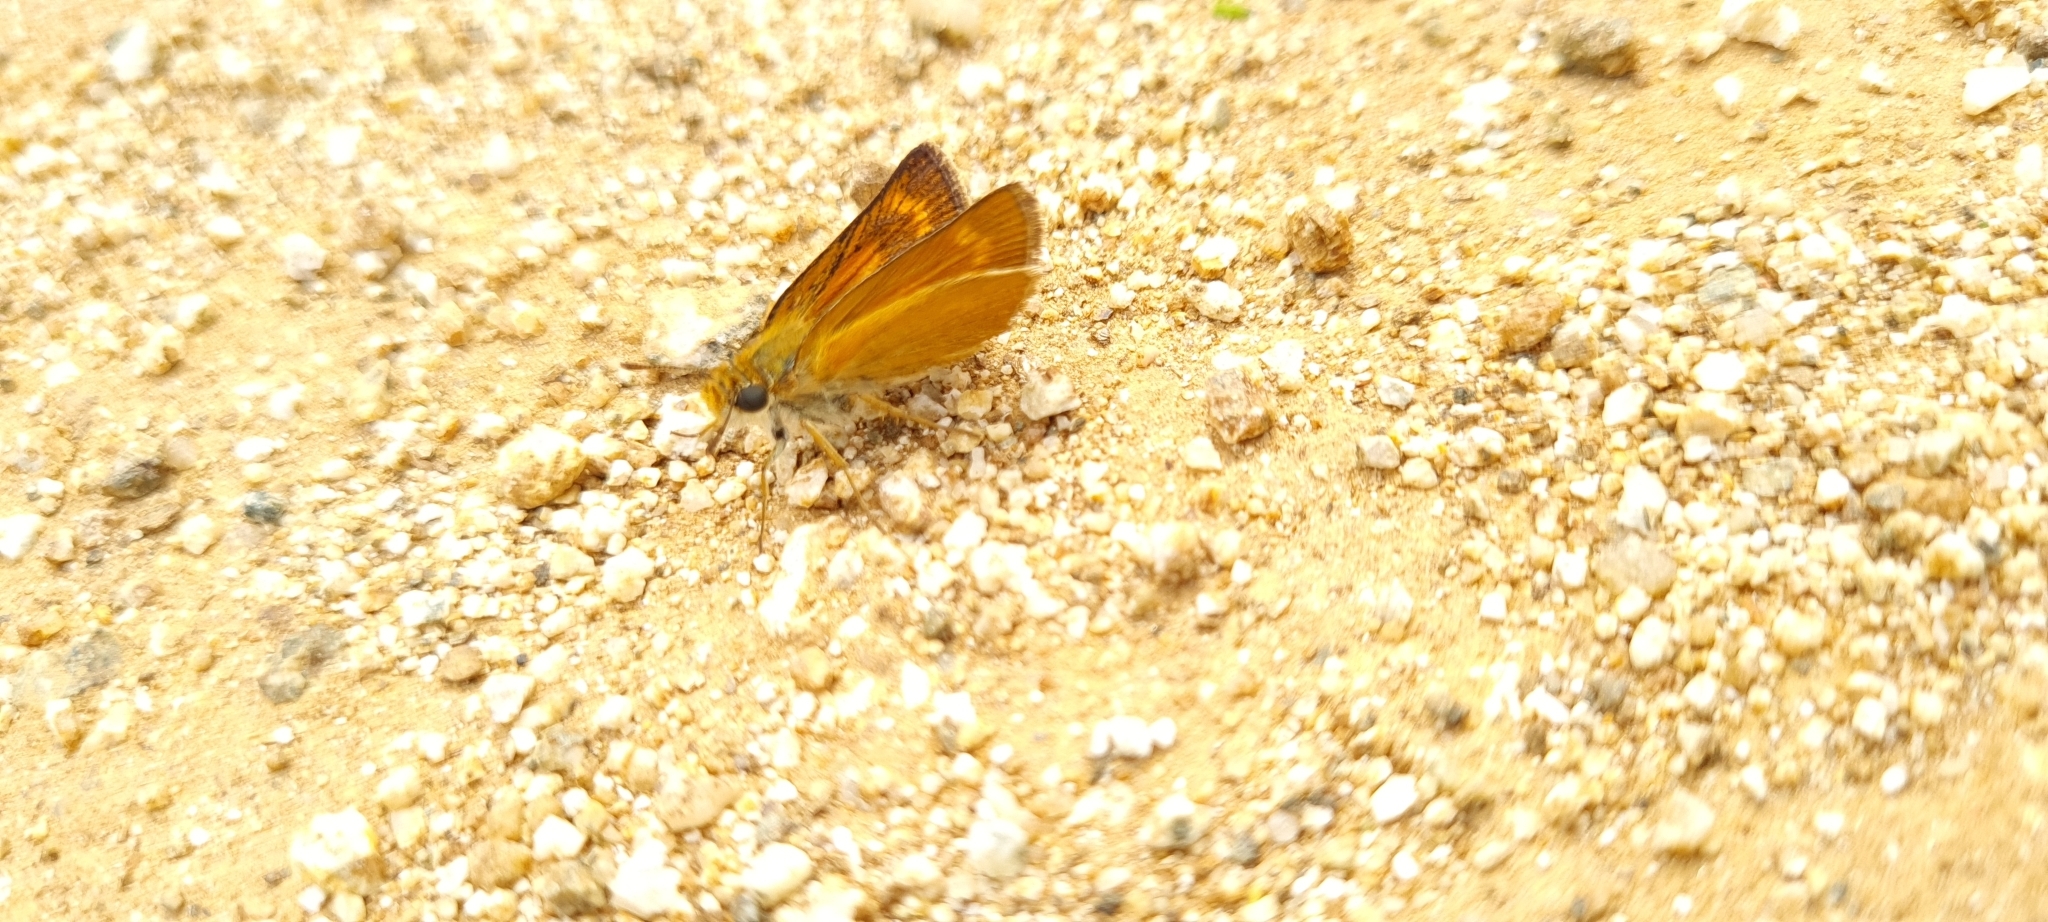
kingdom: Animalia
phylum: Arthropoda
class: Insecta
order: Lepidoptera
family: Hesperiidae
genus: Thymelicus
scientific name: Thymelicus acteon
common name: Lulworth skipper
